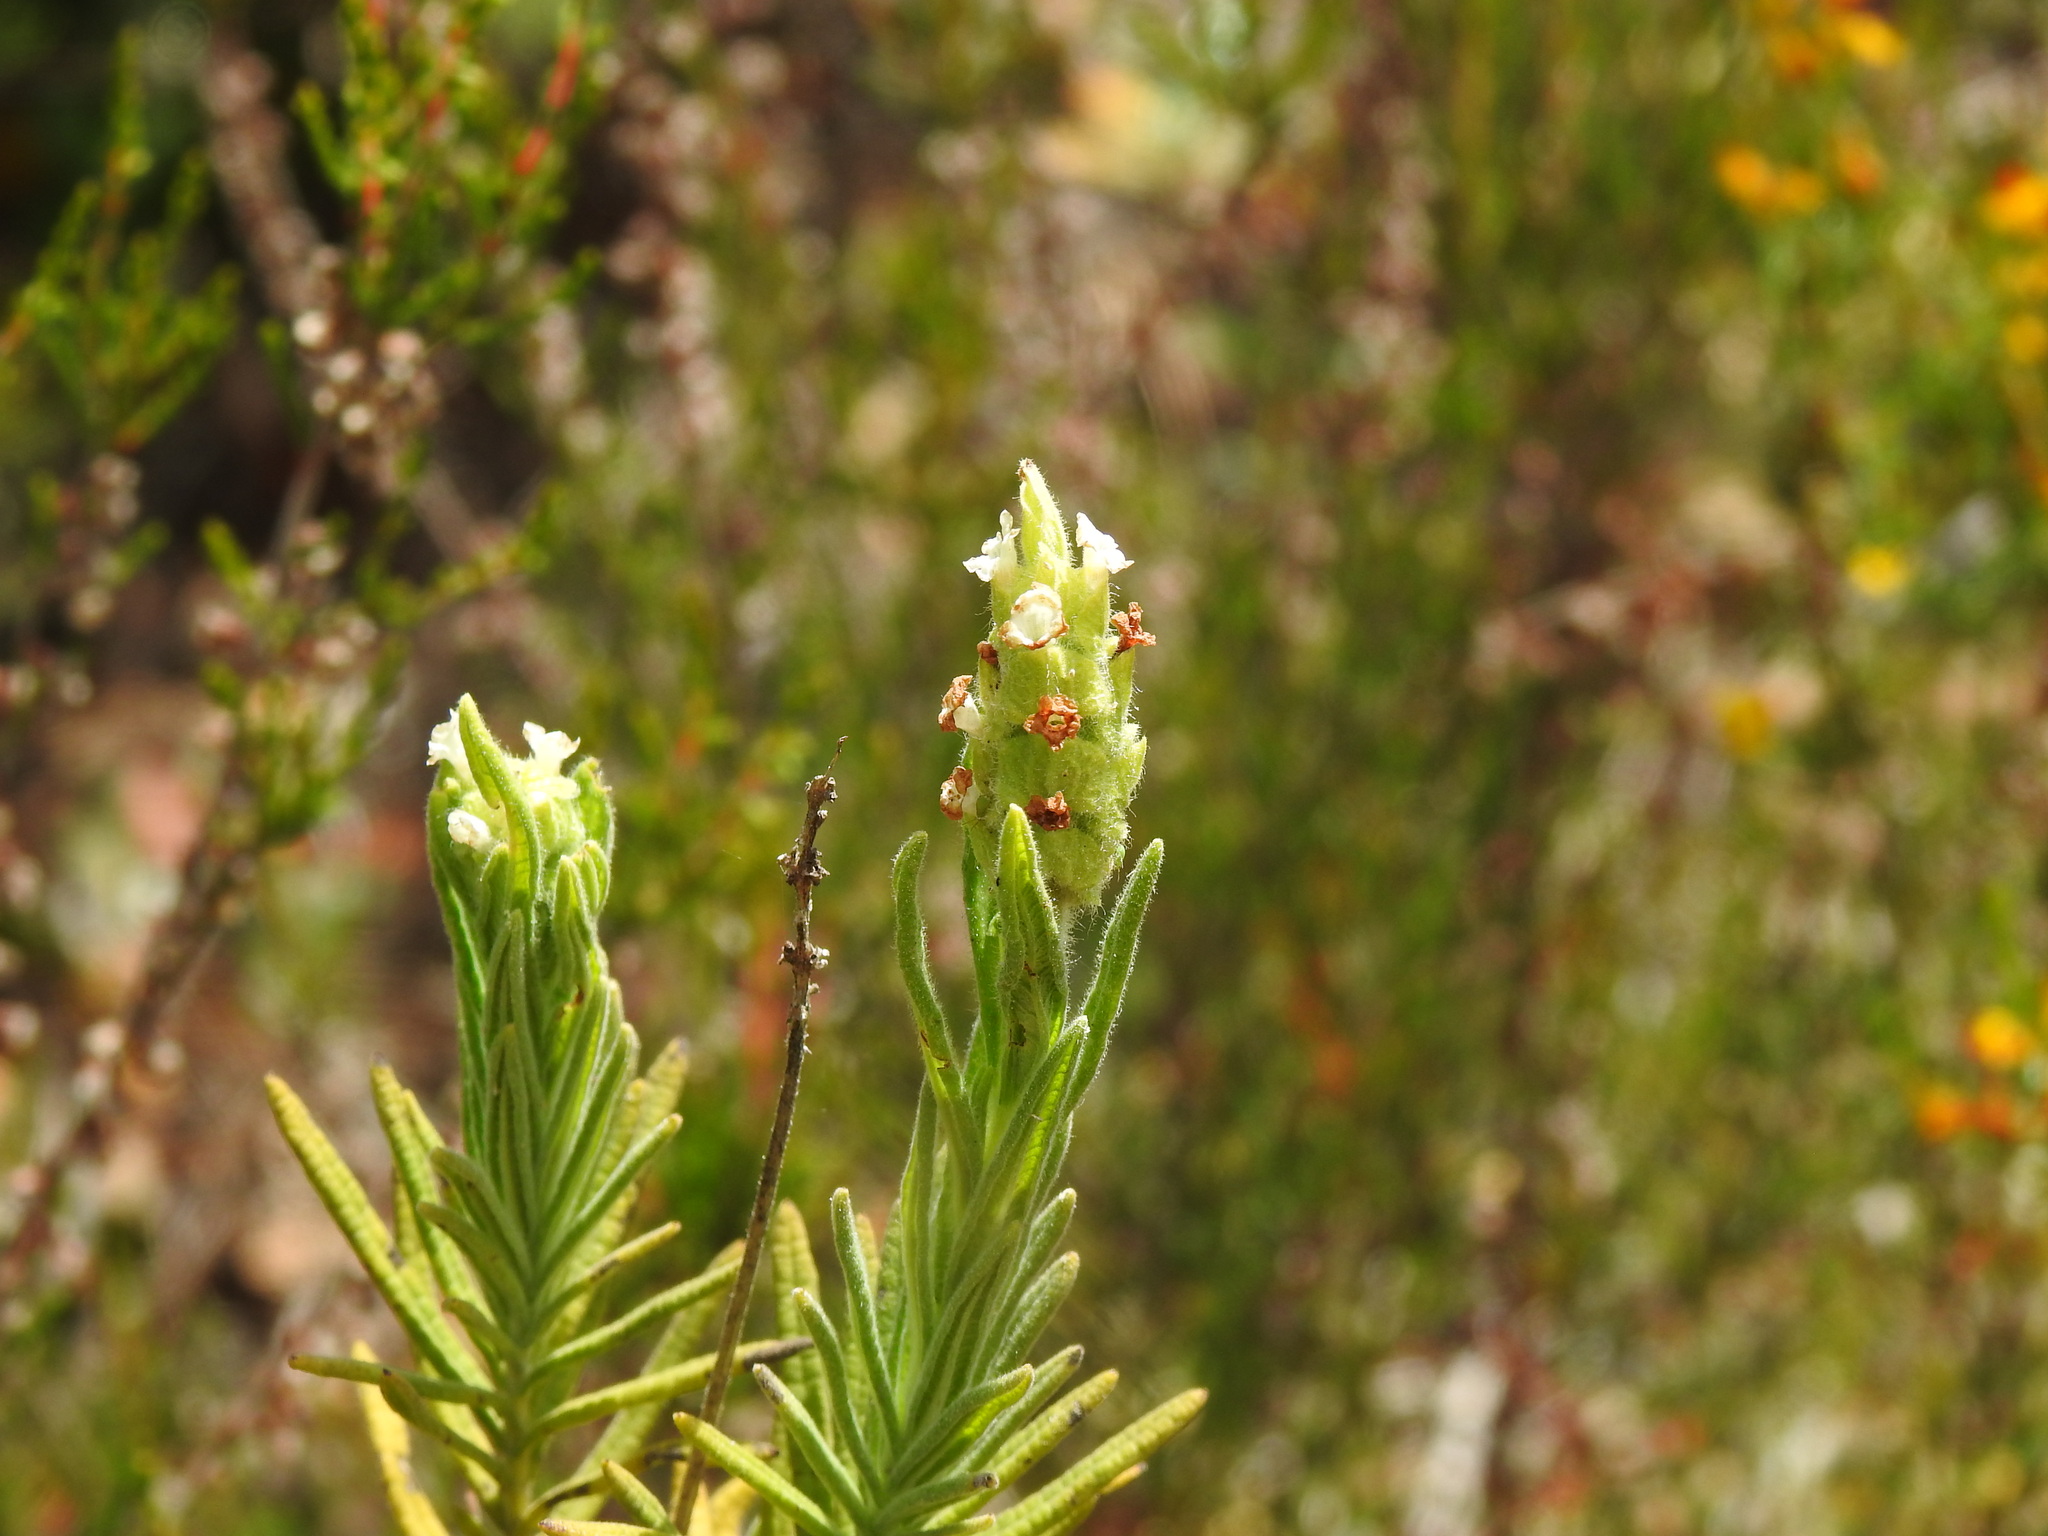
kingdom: Plantae
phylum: Tracheophyta
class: Magnoliopsida
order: Lamiales
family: Lamiaceae
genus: Lavandula
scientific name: Lavandula viridis
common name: Green spanish lavender
